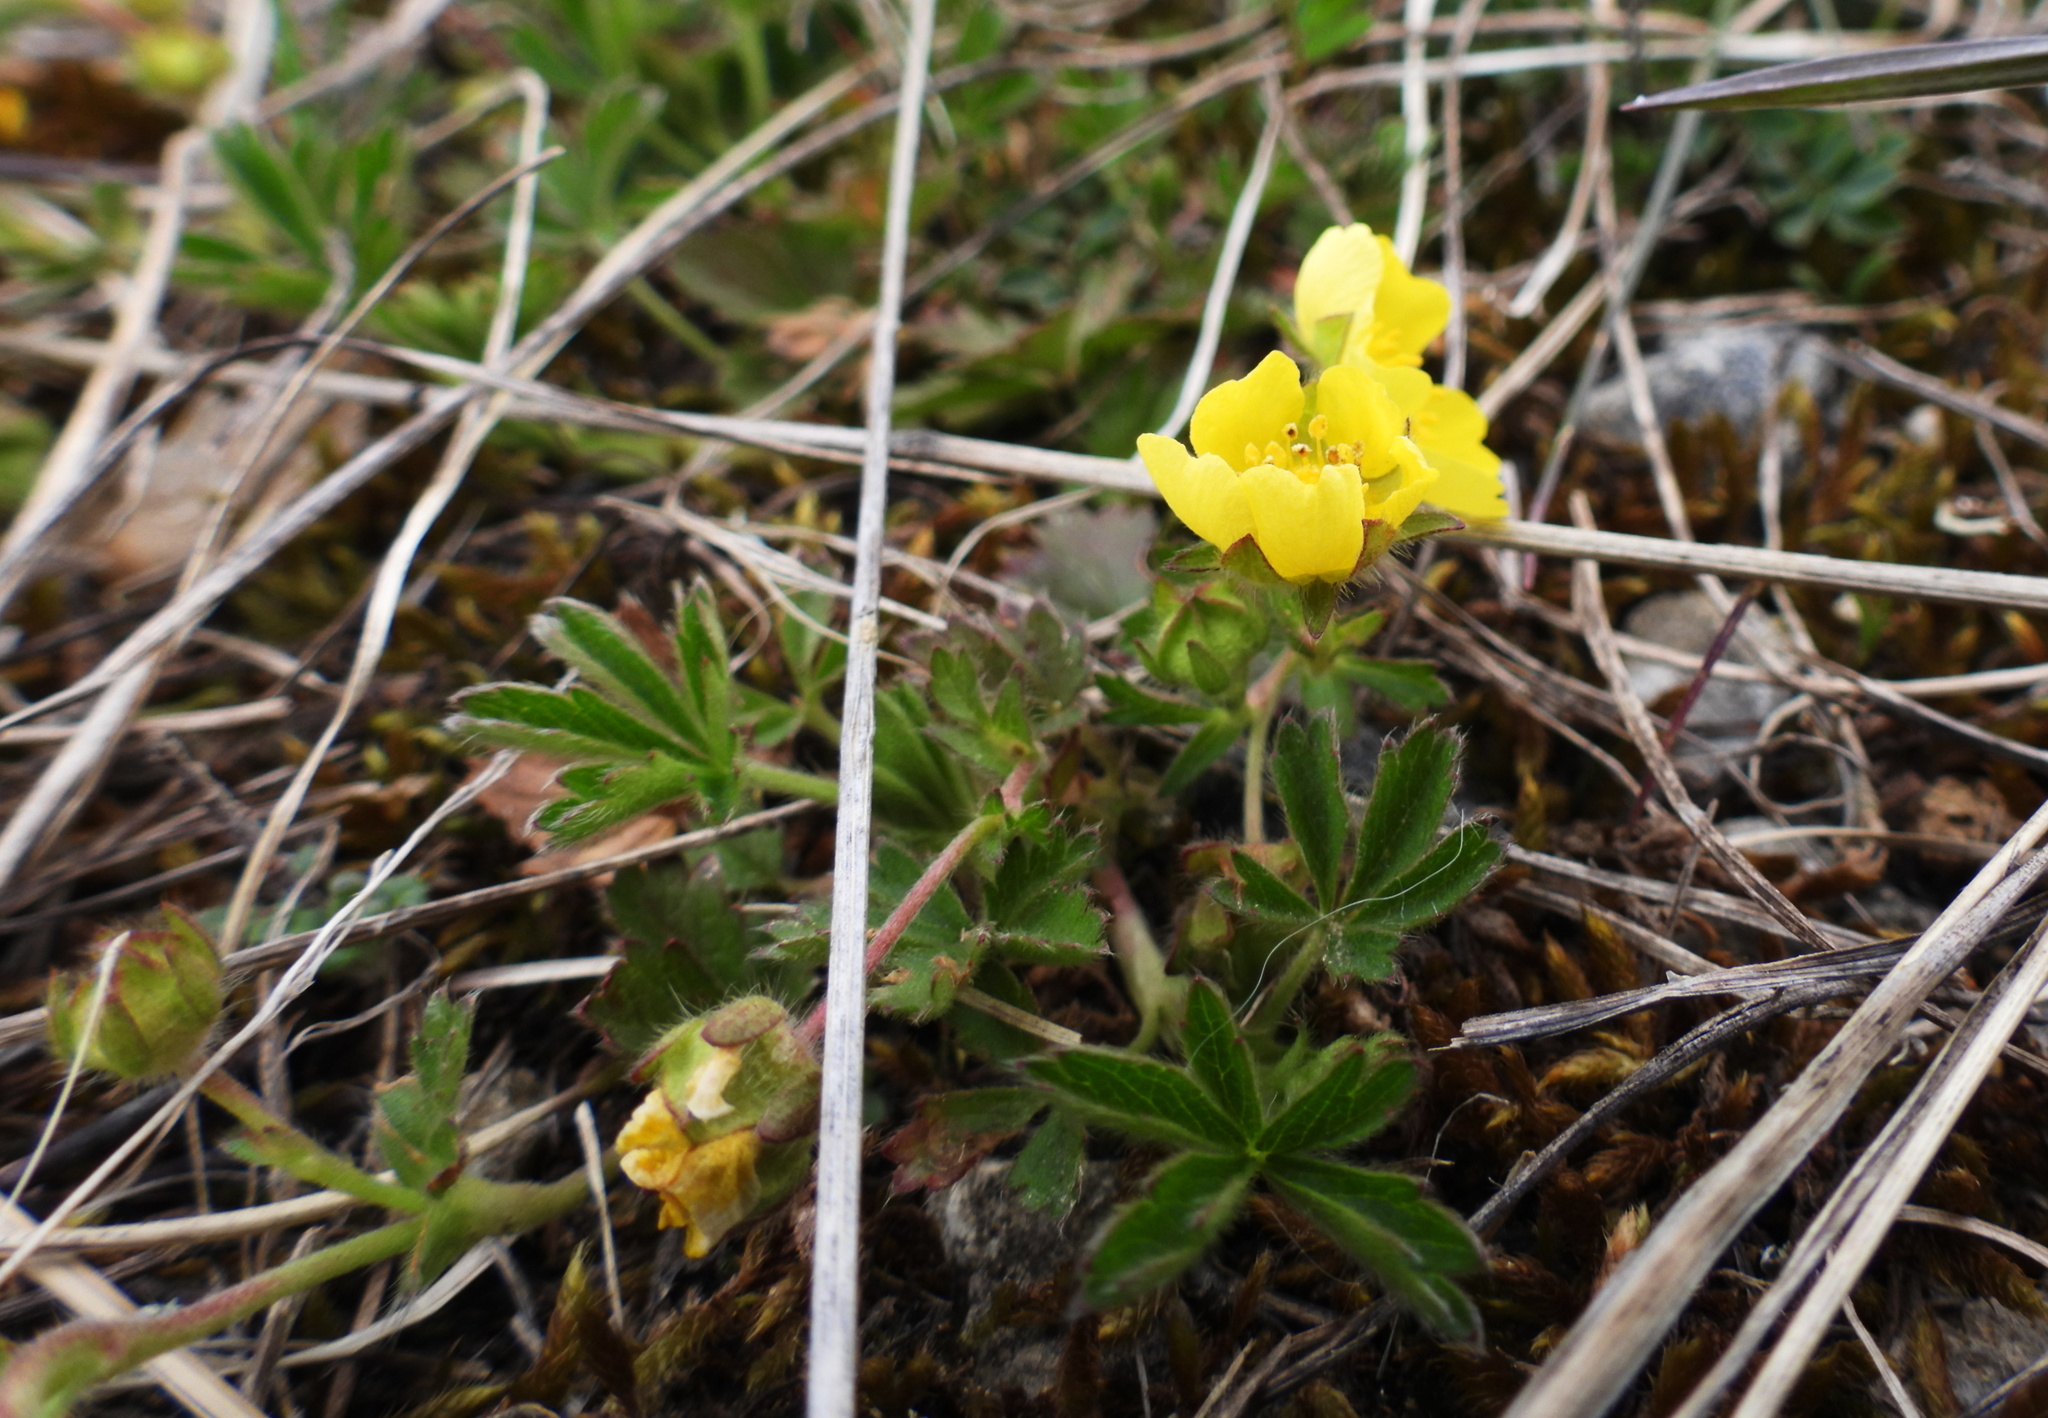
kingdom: Plantae
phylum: Tracheophyta
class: Magnoliopsida
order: Rosales
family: Rosaceae
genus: Potentilla
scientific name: Potentilla verna
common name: Spring cinquefoil
